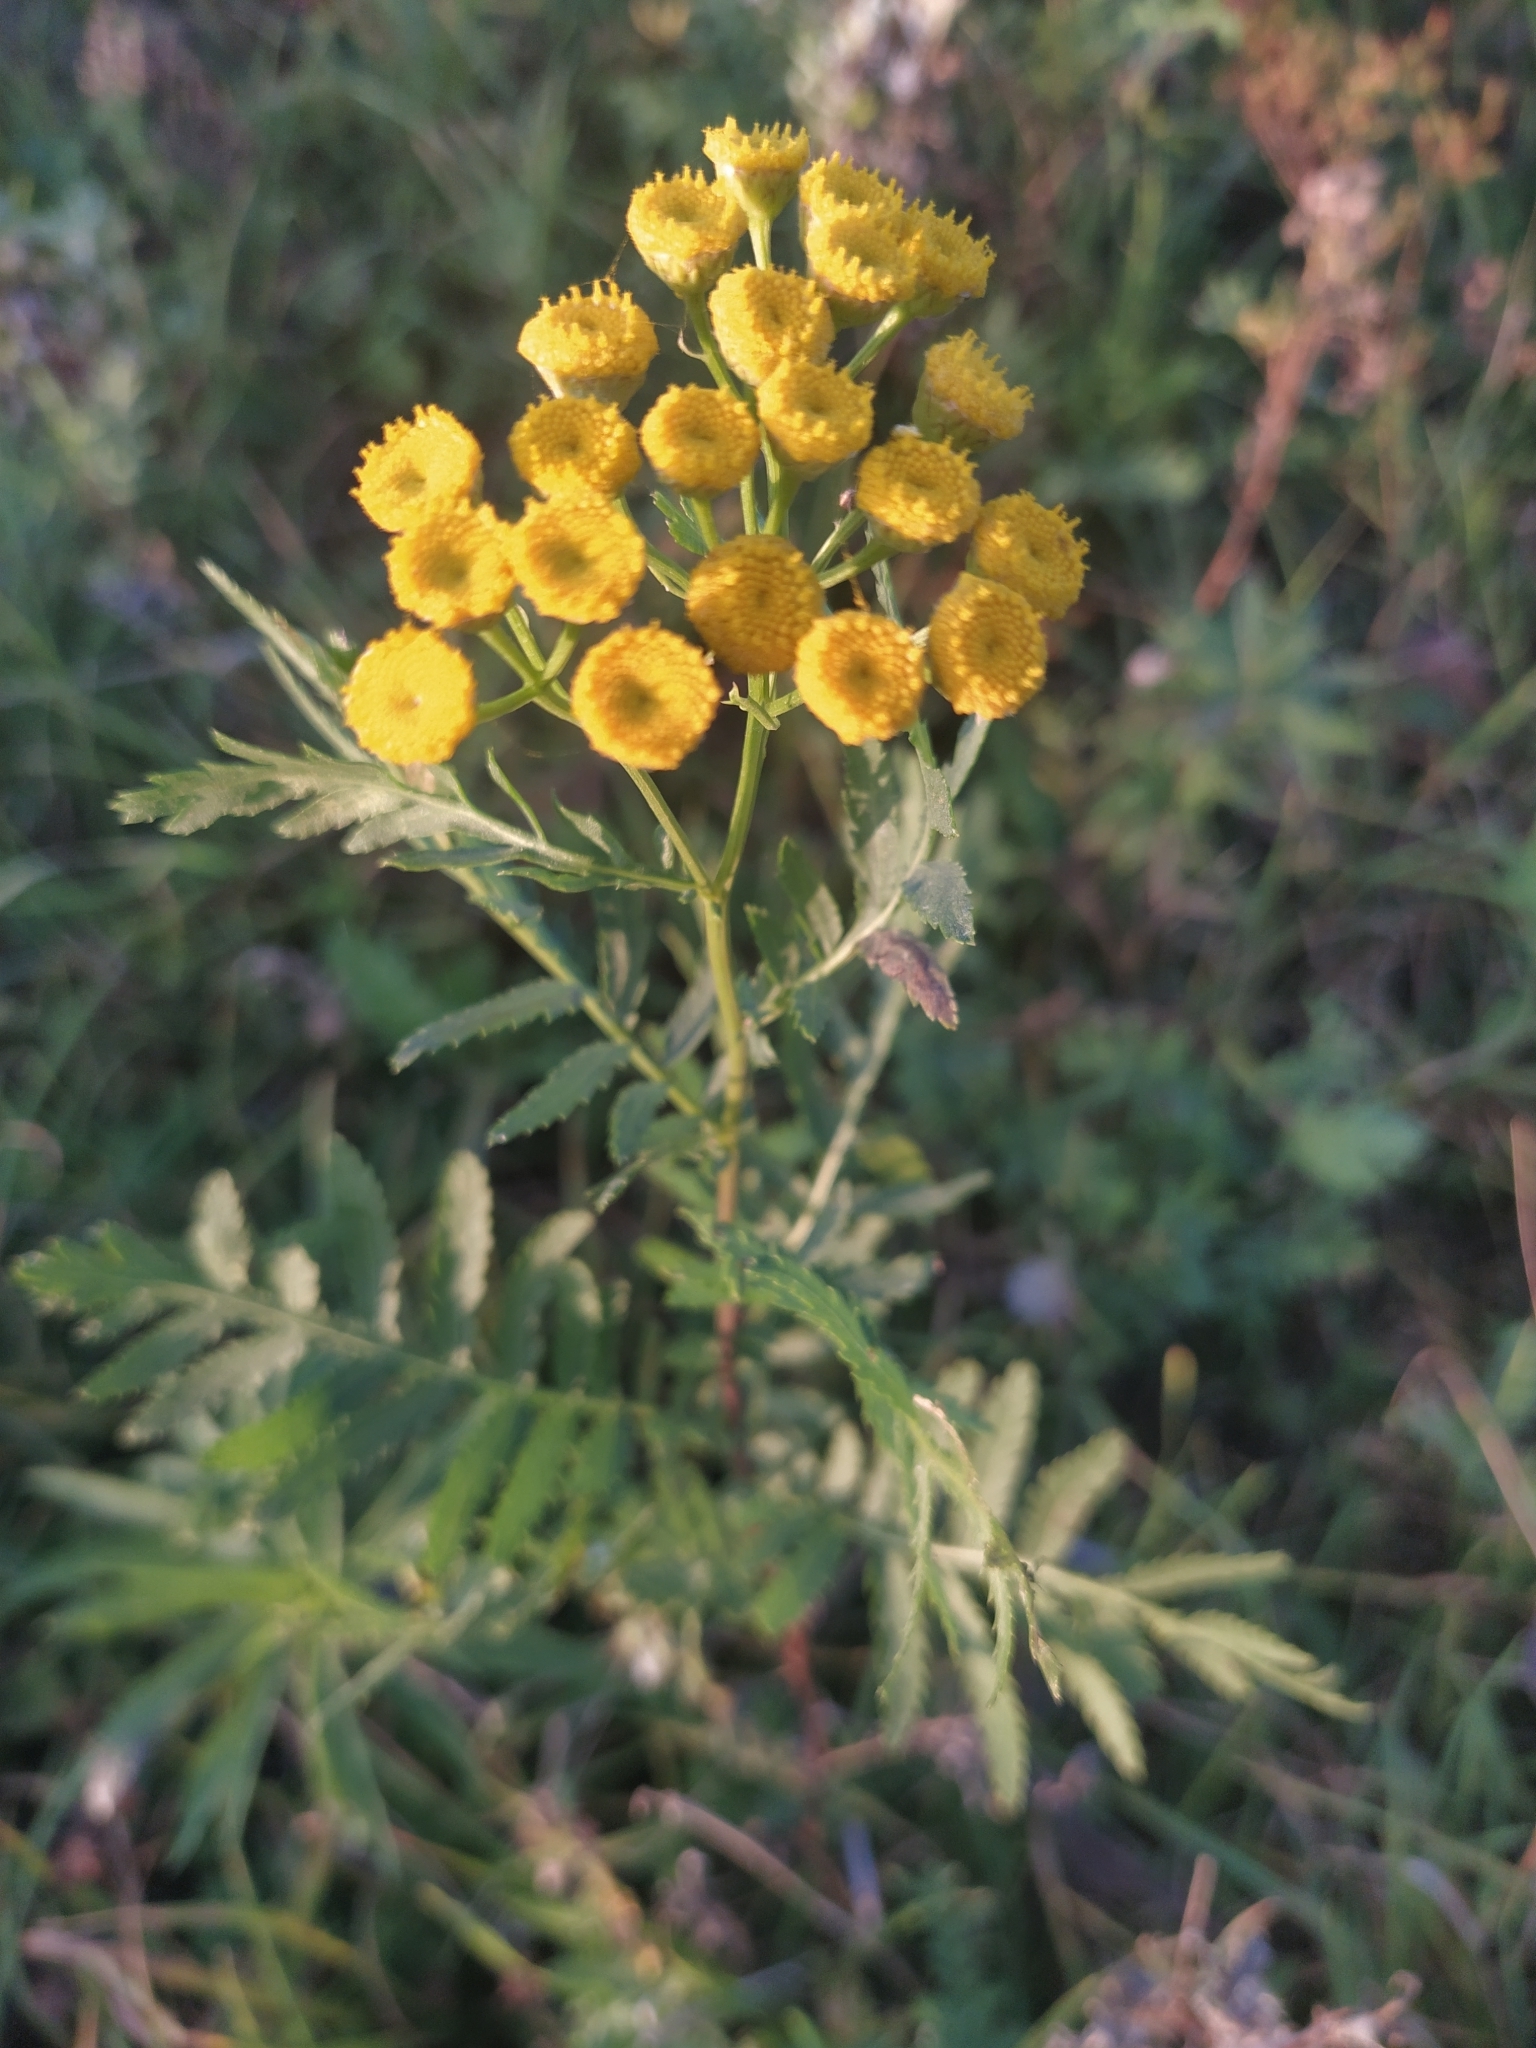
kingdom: Plantae
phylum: Tracheophyta
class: Magnoliopsida
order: Asterales
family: Asteraceae
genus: Tanacetum
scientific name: Tanacetum vulgare
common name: Common tansy
